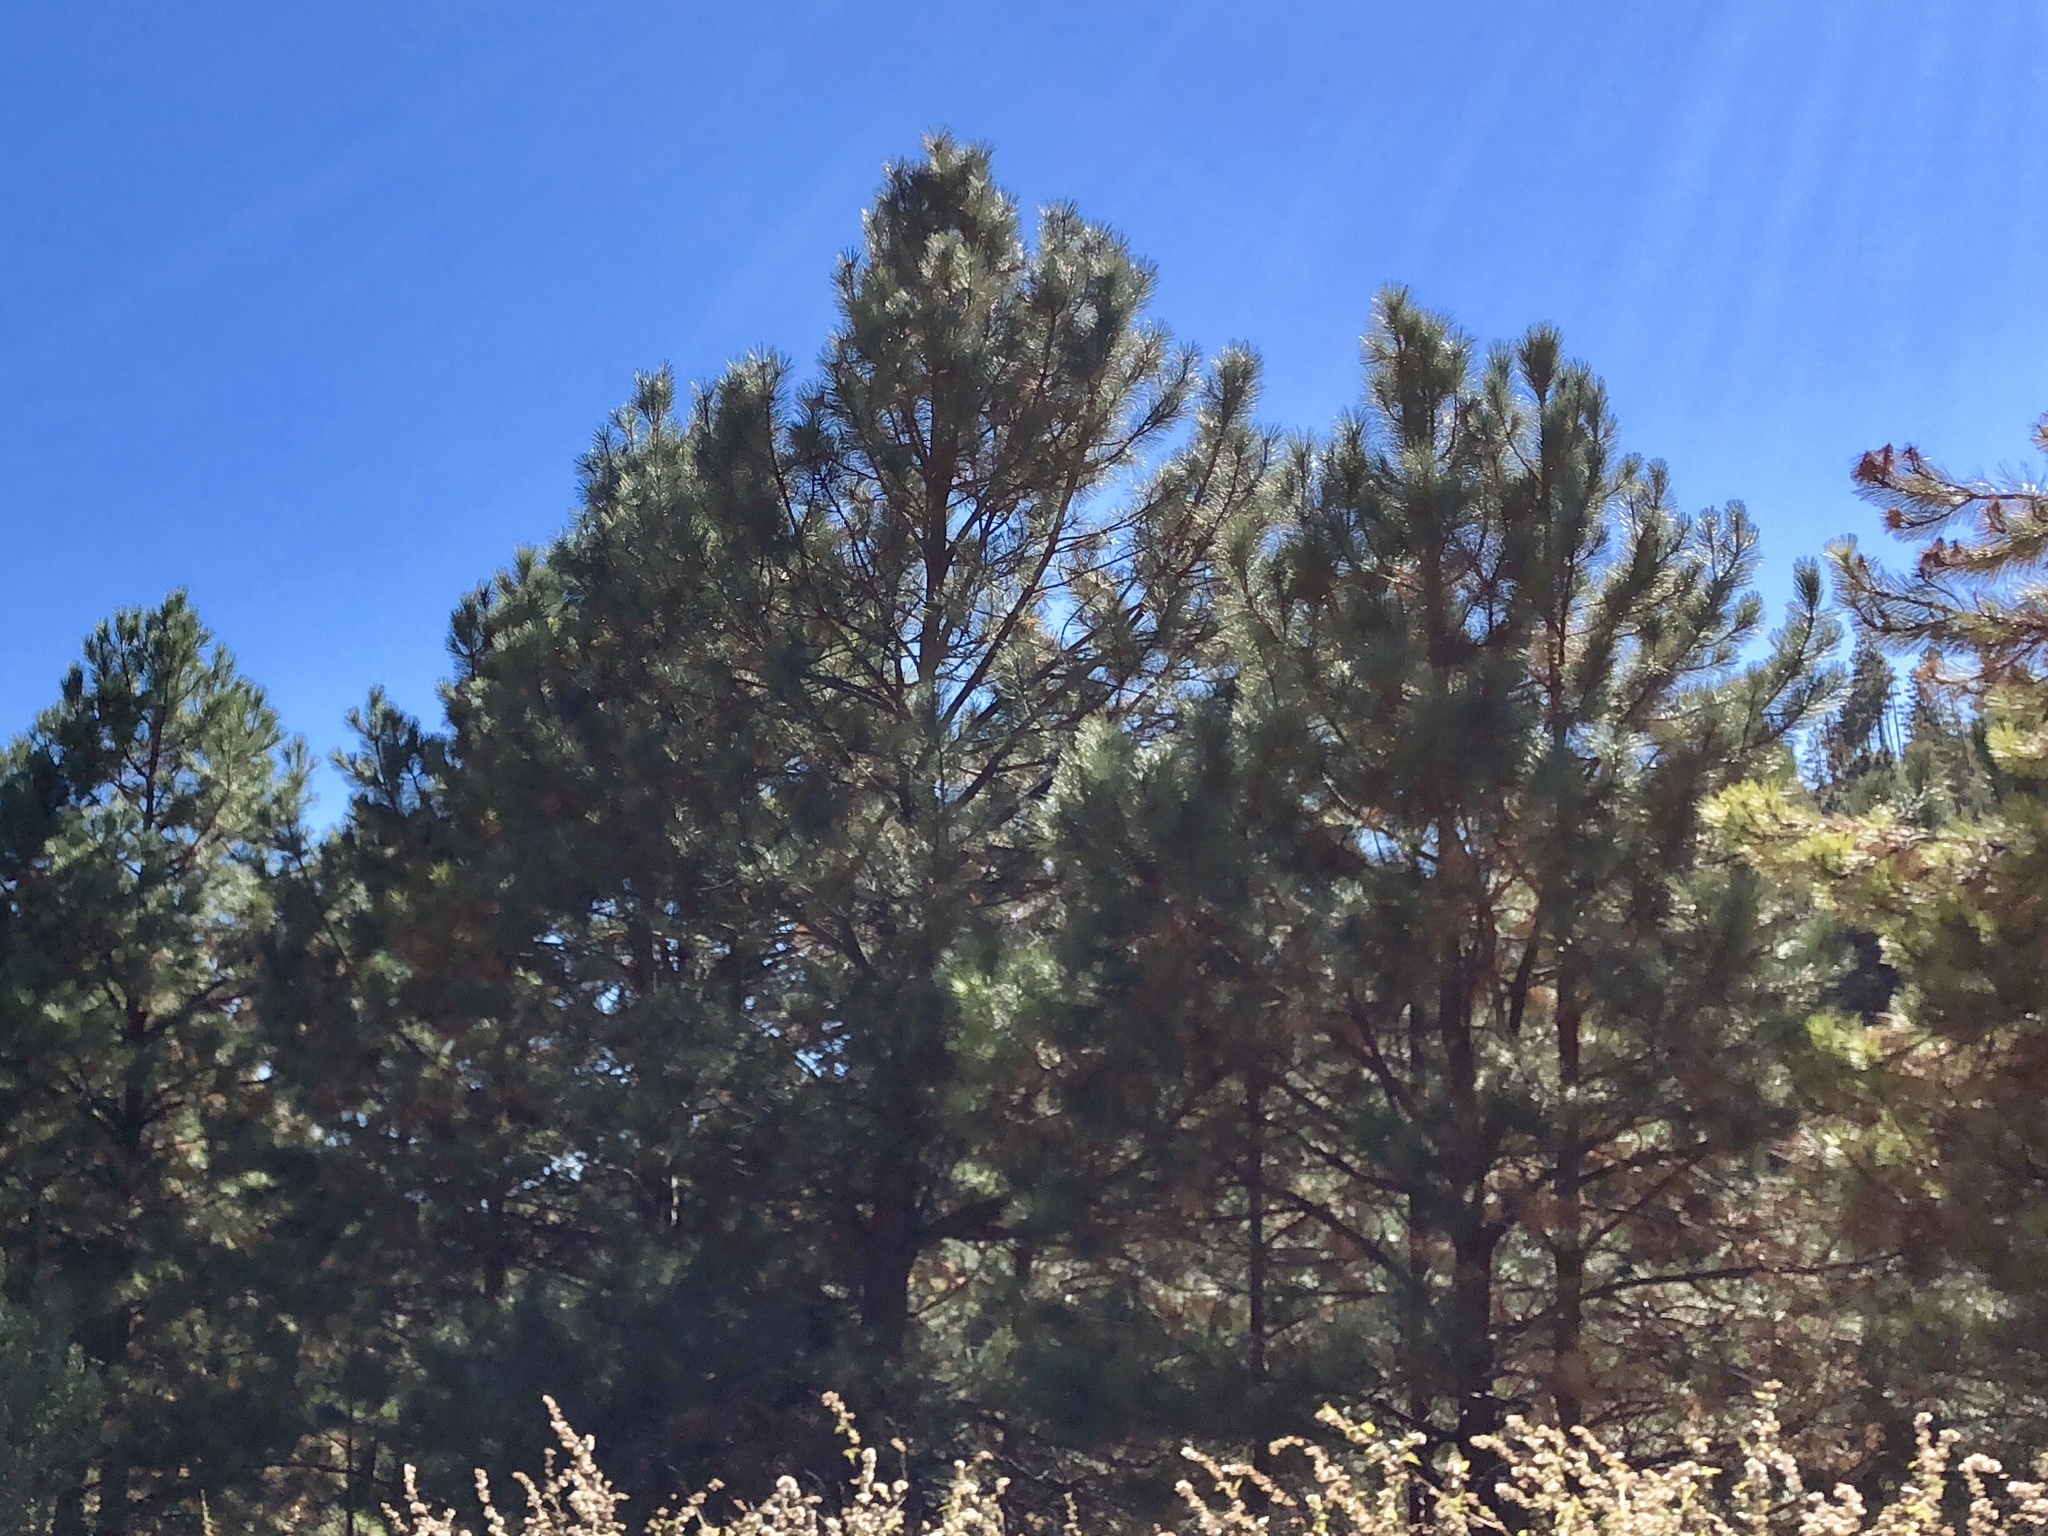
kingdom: Plantae
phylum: Tracheophyta
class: Pinopsida
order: Pinales
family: Pinaceae
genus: Pinus
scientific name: Pinus ponderosa
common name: Western yellow-pine
